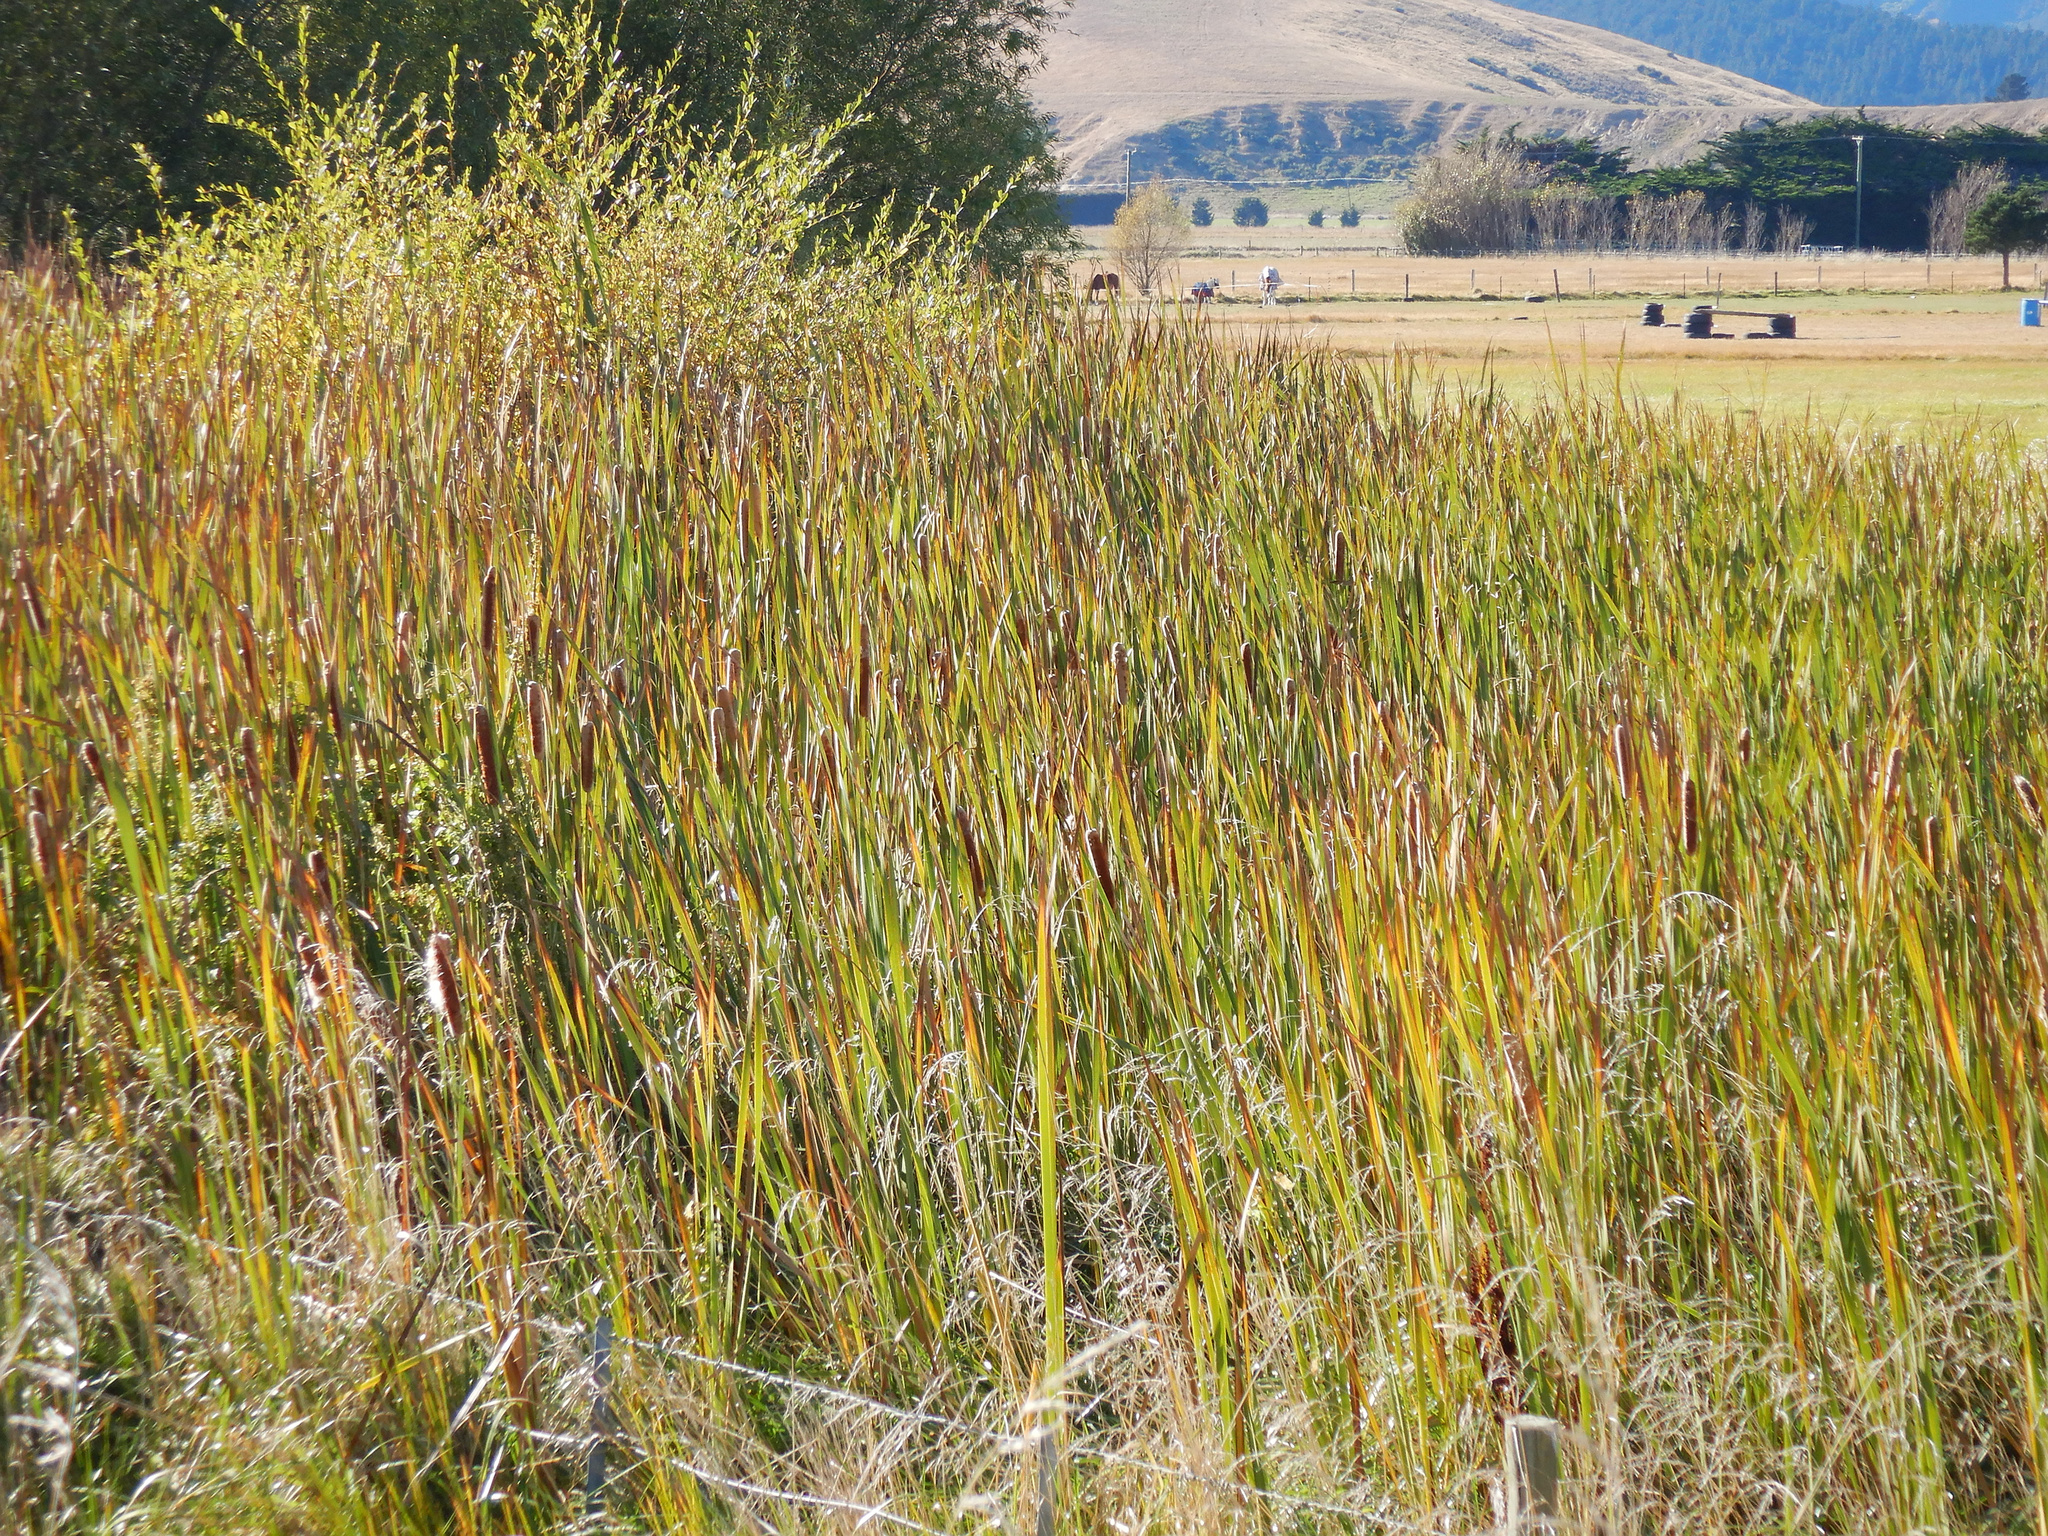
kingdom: Plantae
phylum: Tracheophyta
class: Liliopsida
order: Poales
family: Typhaceae
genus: Typha
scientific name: Typha orientalis
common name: Bullrush
